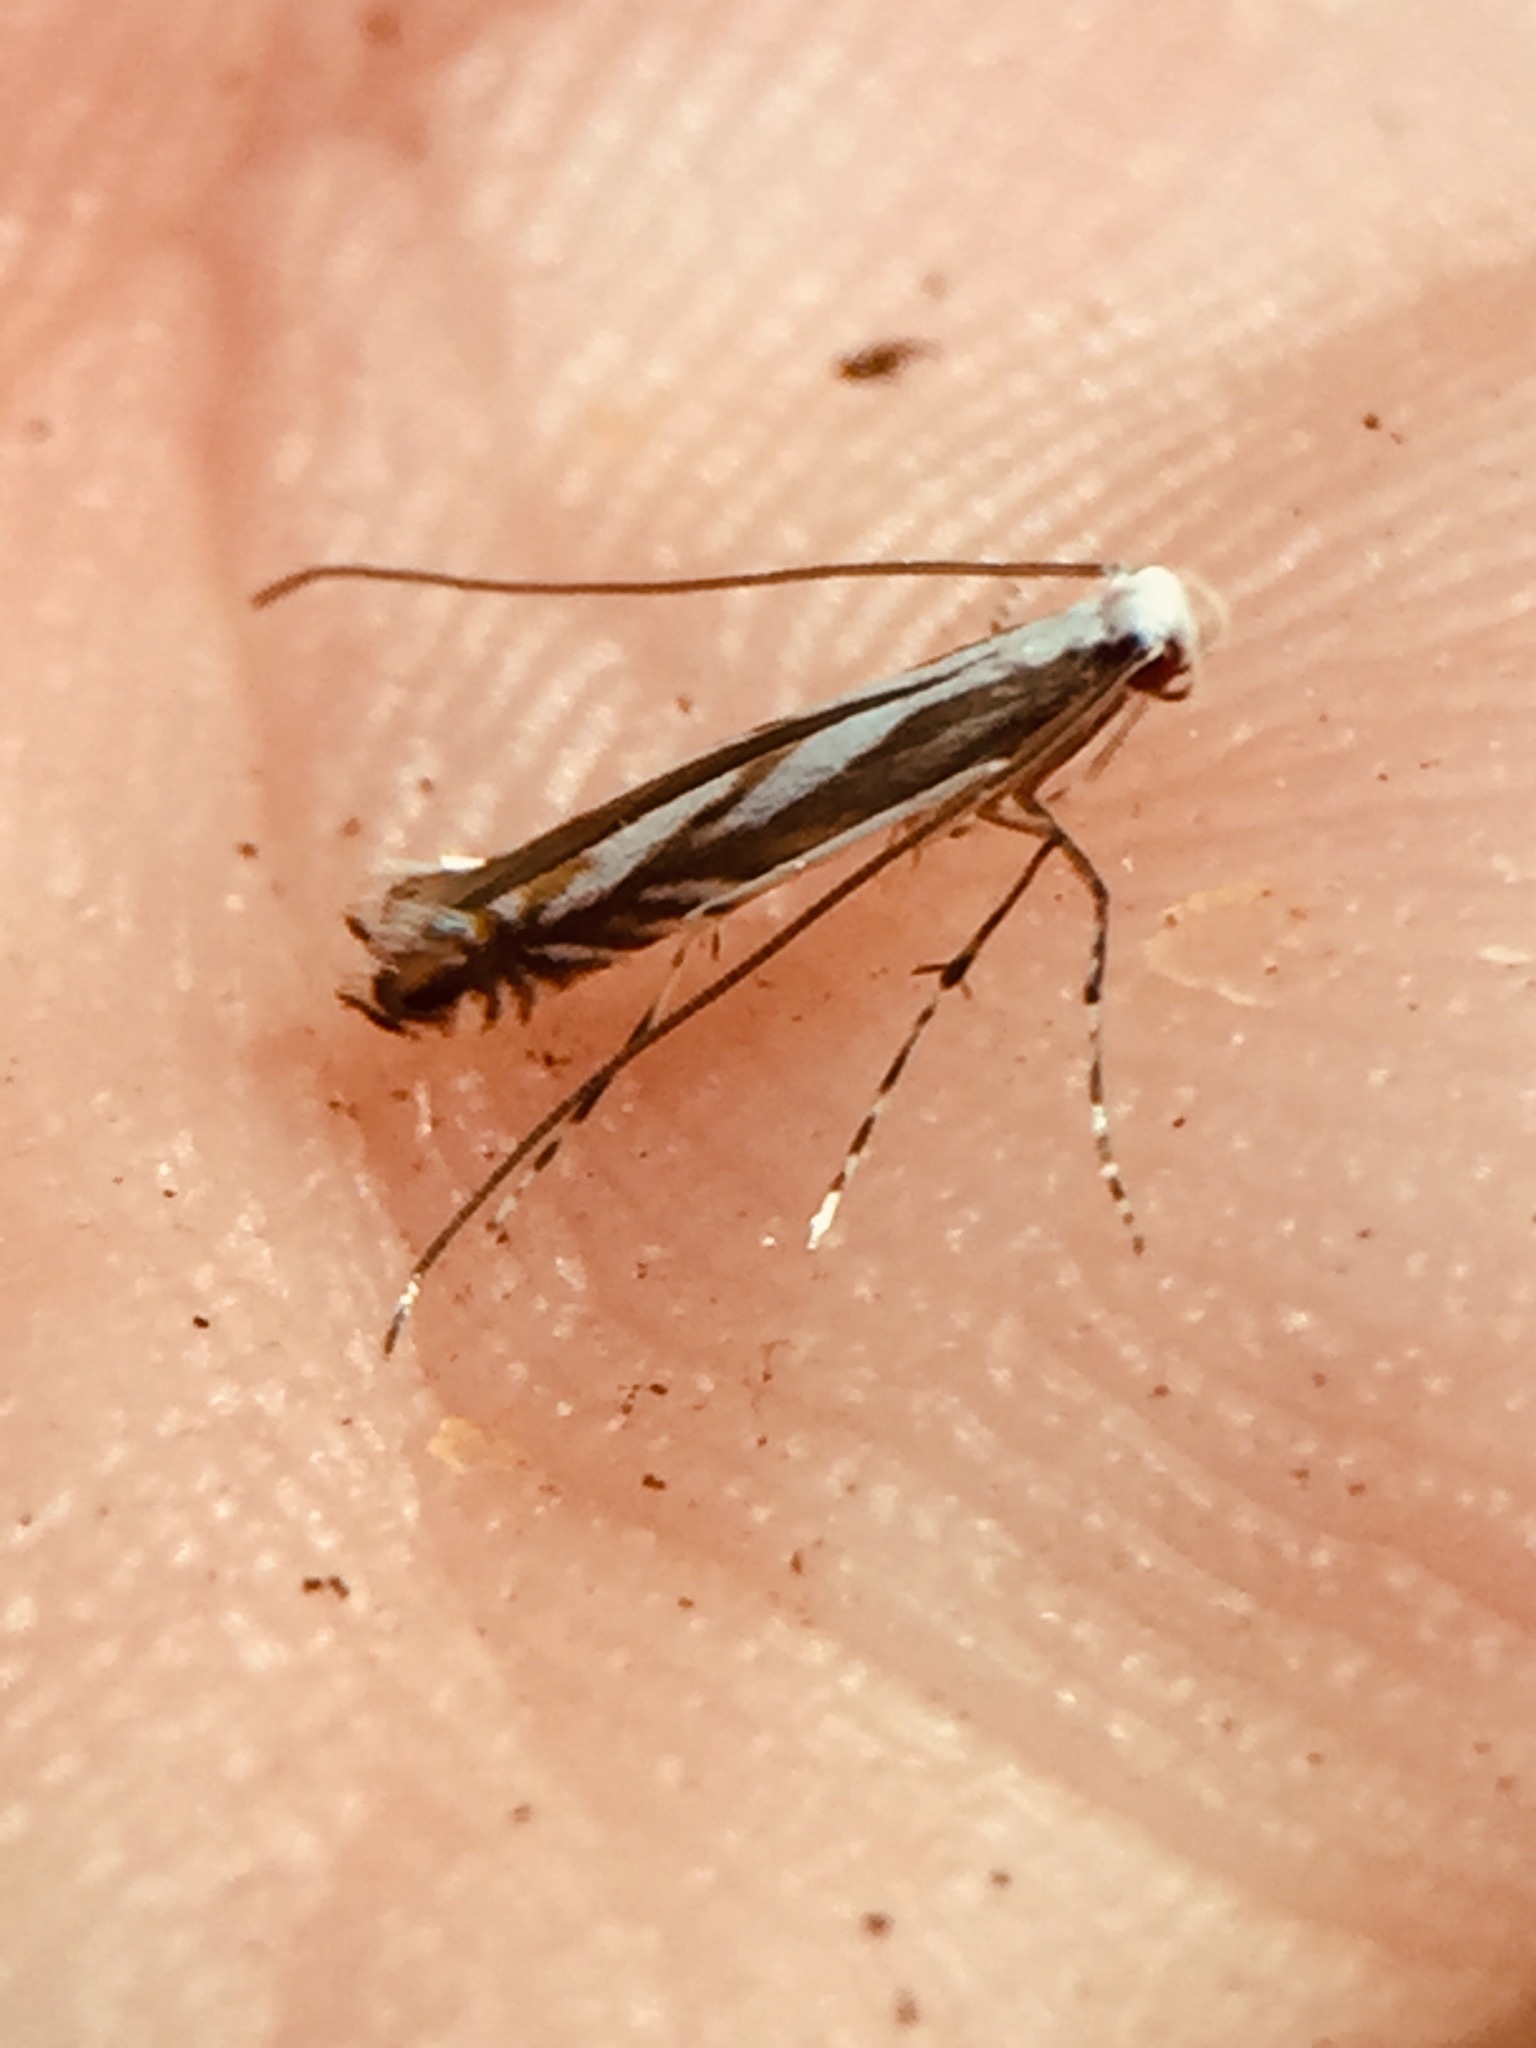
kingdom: Animalia
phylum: Arthropoda
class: Insecta
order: Lepidoptera
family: Gracillariidae
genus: Acrocercops
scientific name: Acrocercops leucotoma
